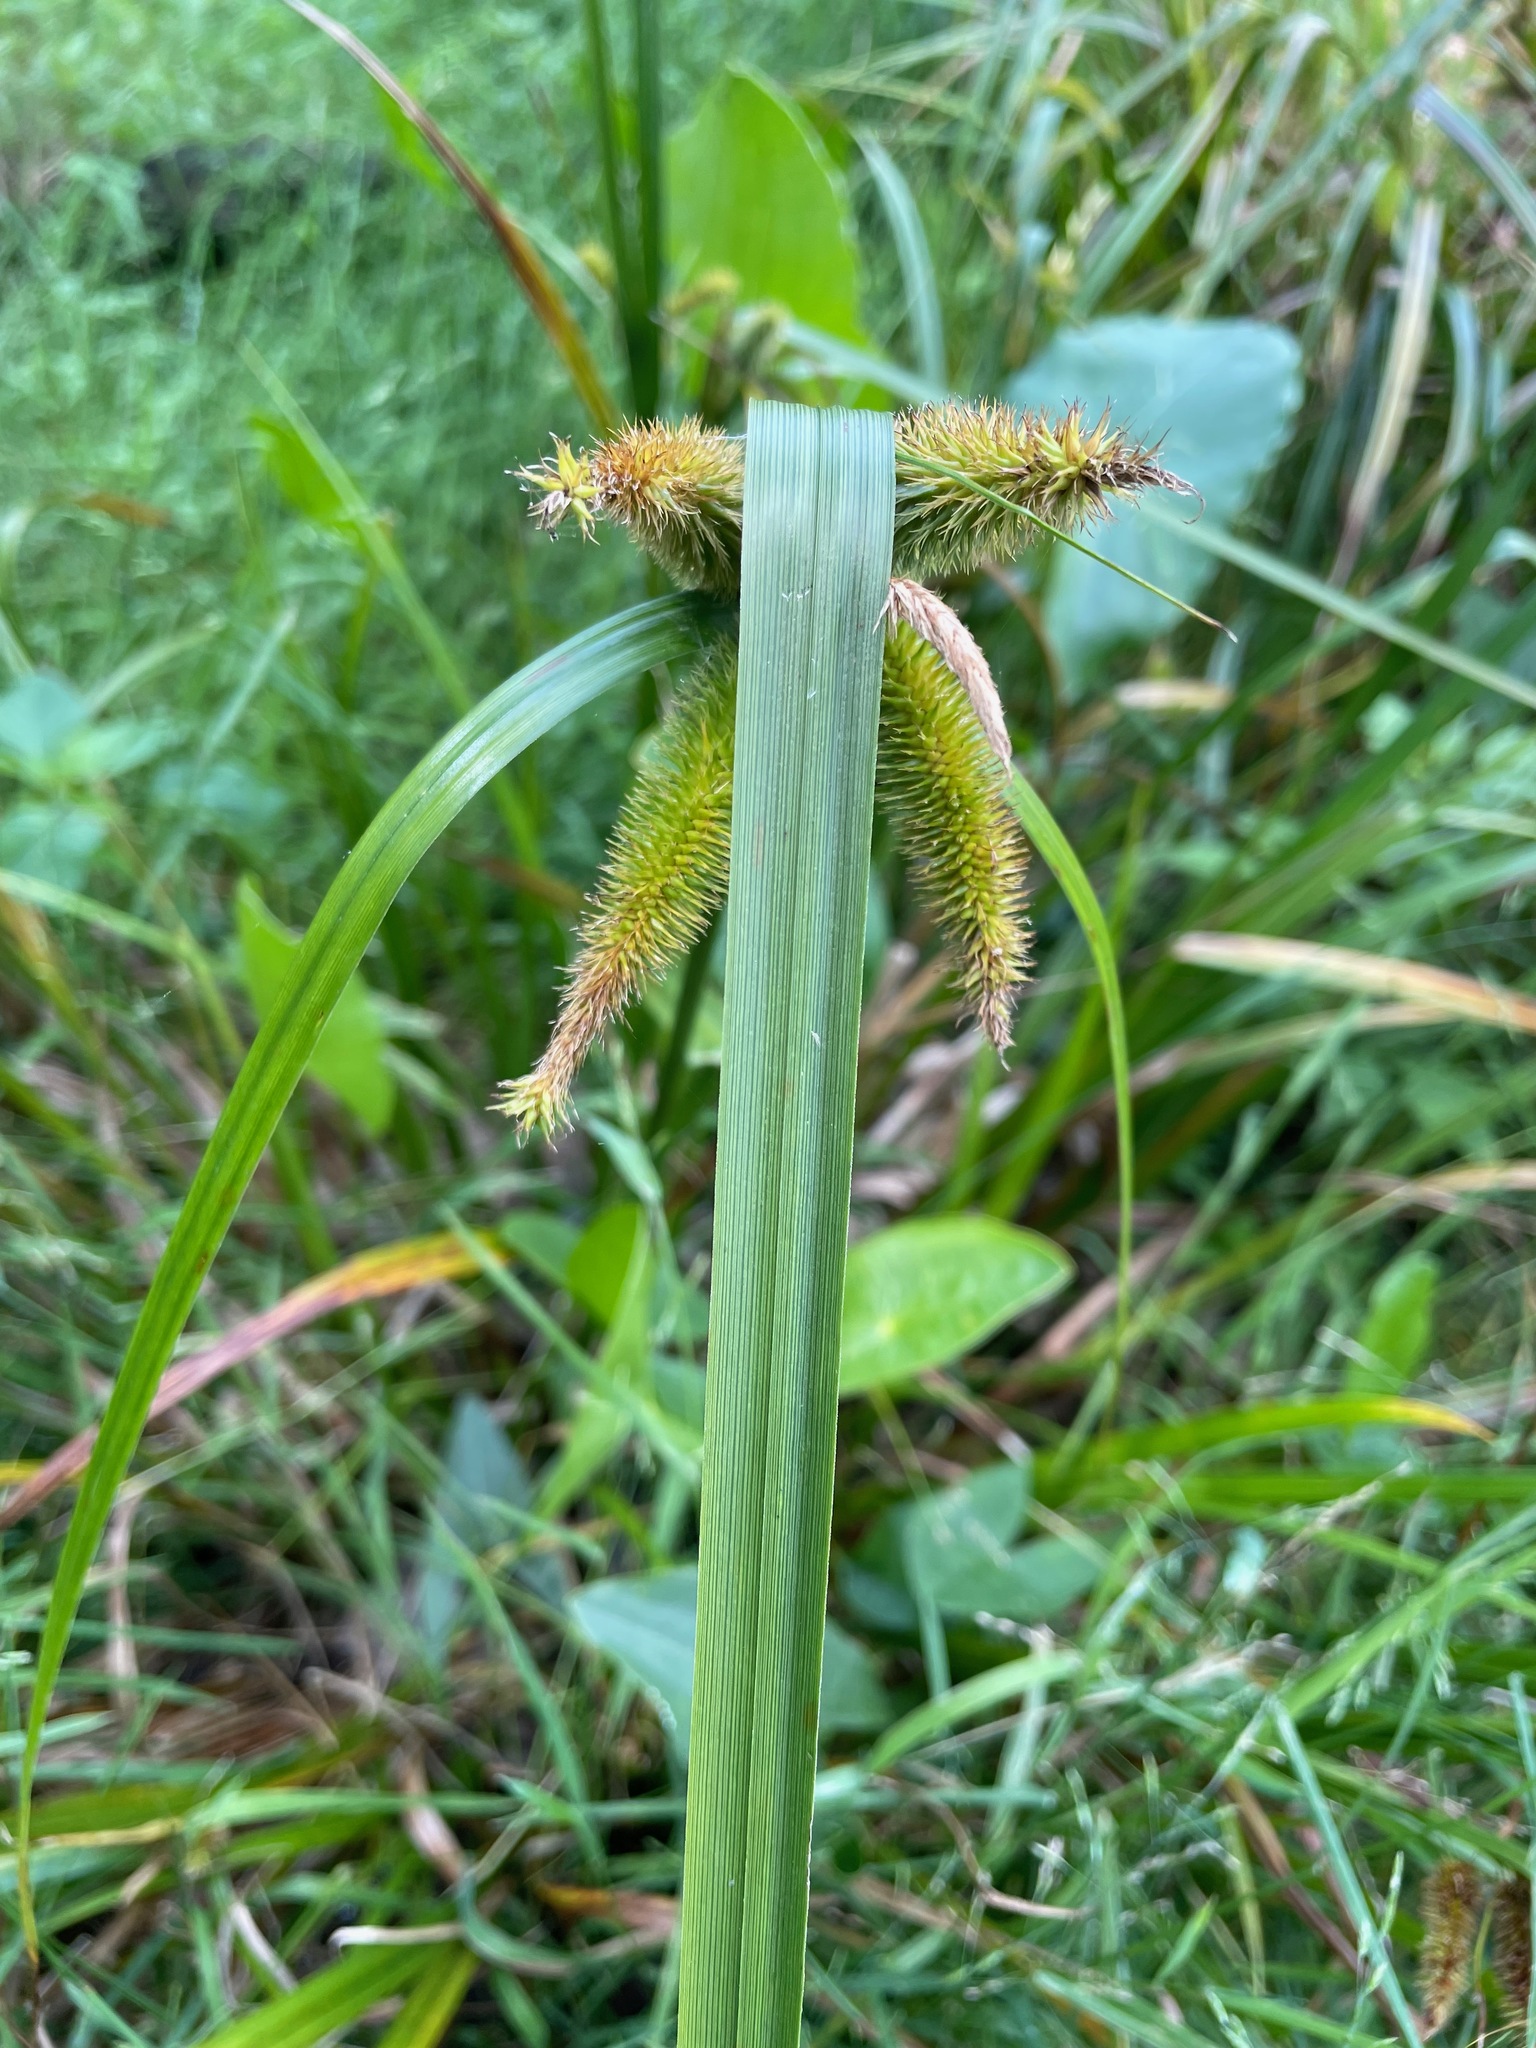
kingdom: Plantae
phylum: Tracheophyta
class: Liliopsida
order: Poales
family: Cyperaceae
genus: Carex
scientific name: Carex comosa
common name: Bristly sedge
